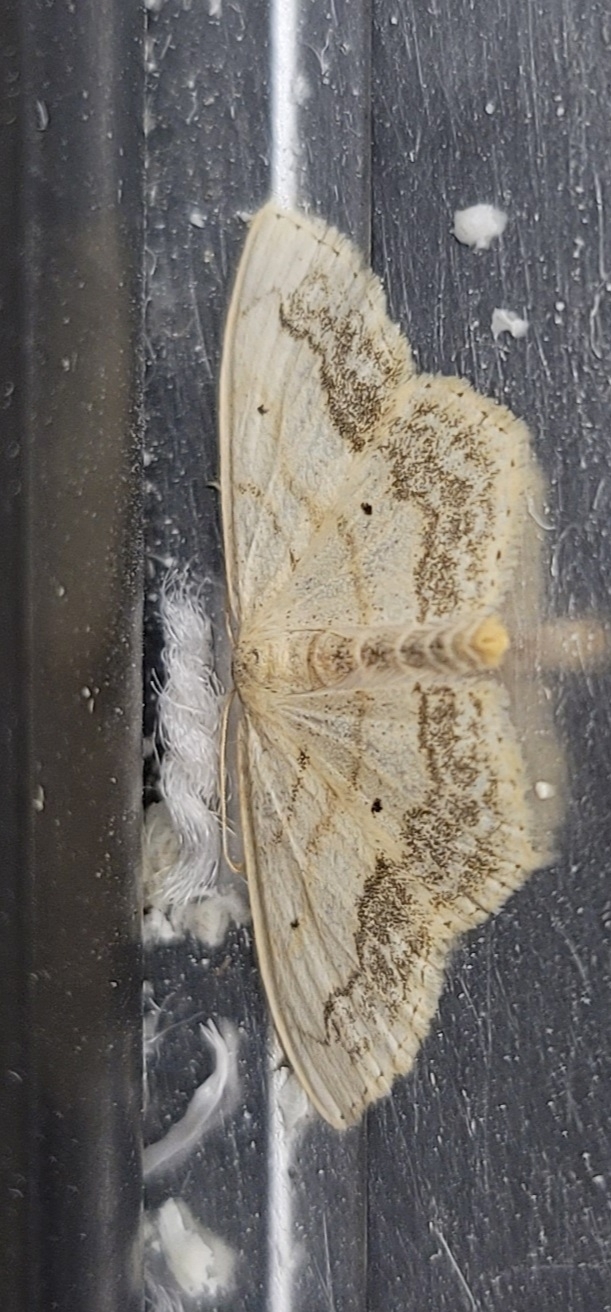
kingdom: Animalia
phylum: Arthropoda
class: Insecta
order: Lepidoptera
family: Geometridae
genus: Scopula
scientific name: Scopula limboundata
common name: Large lace border
